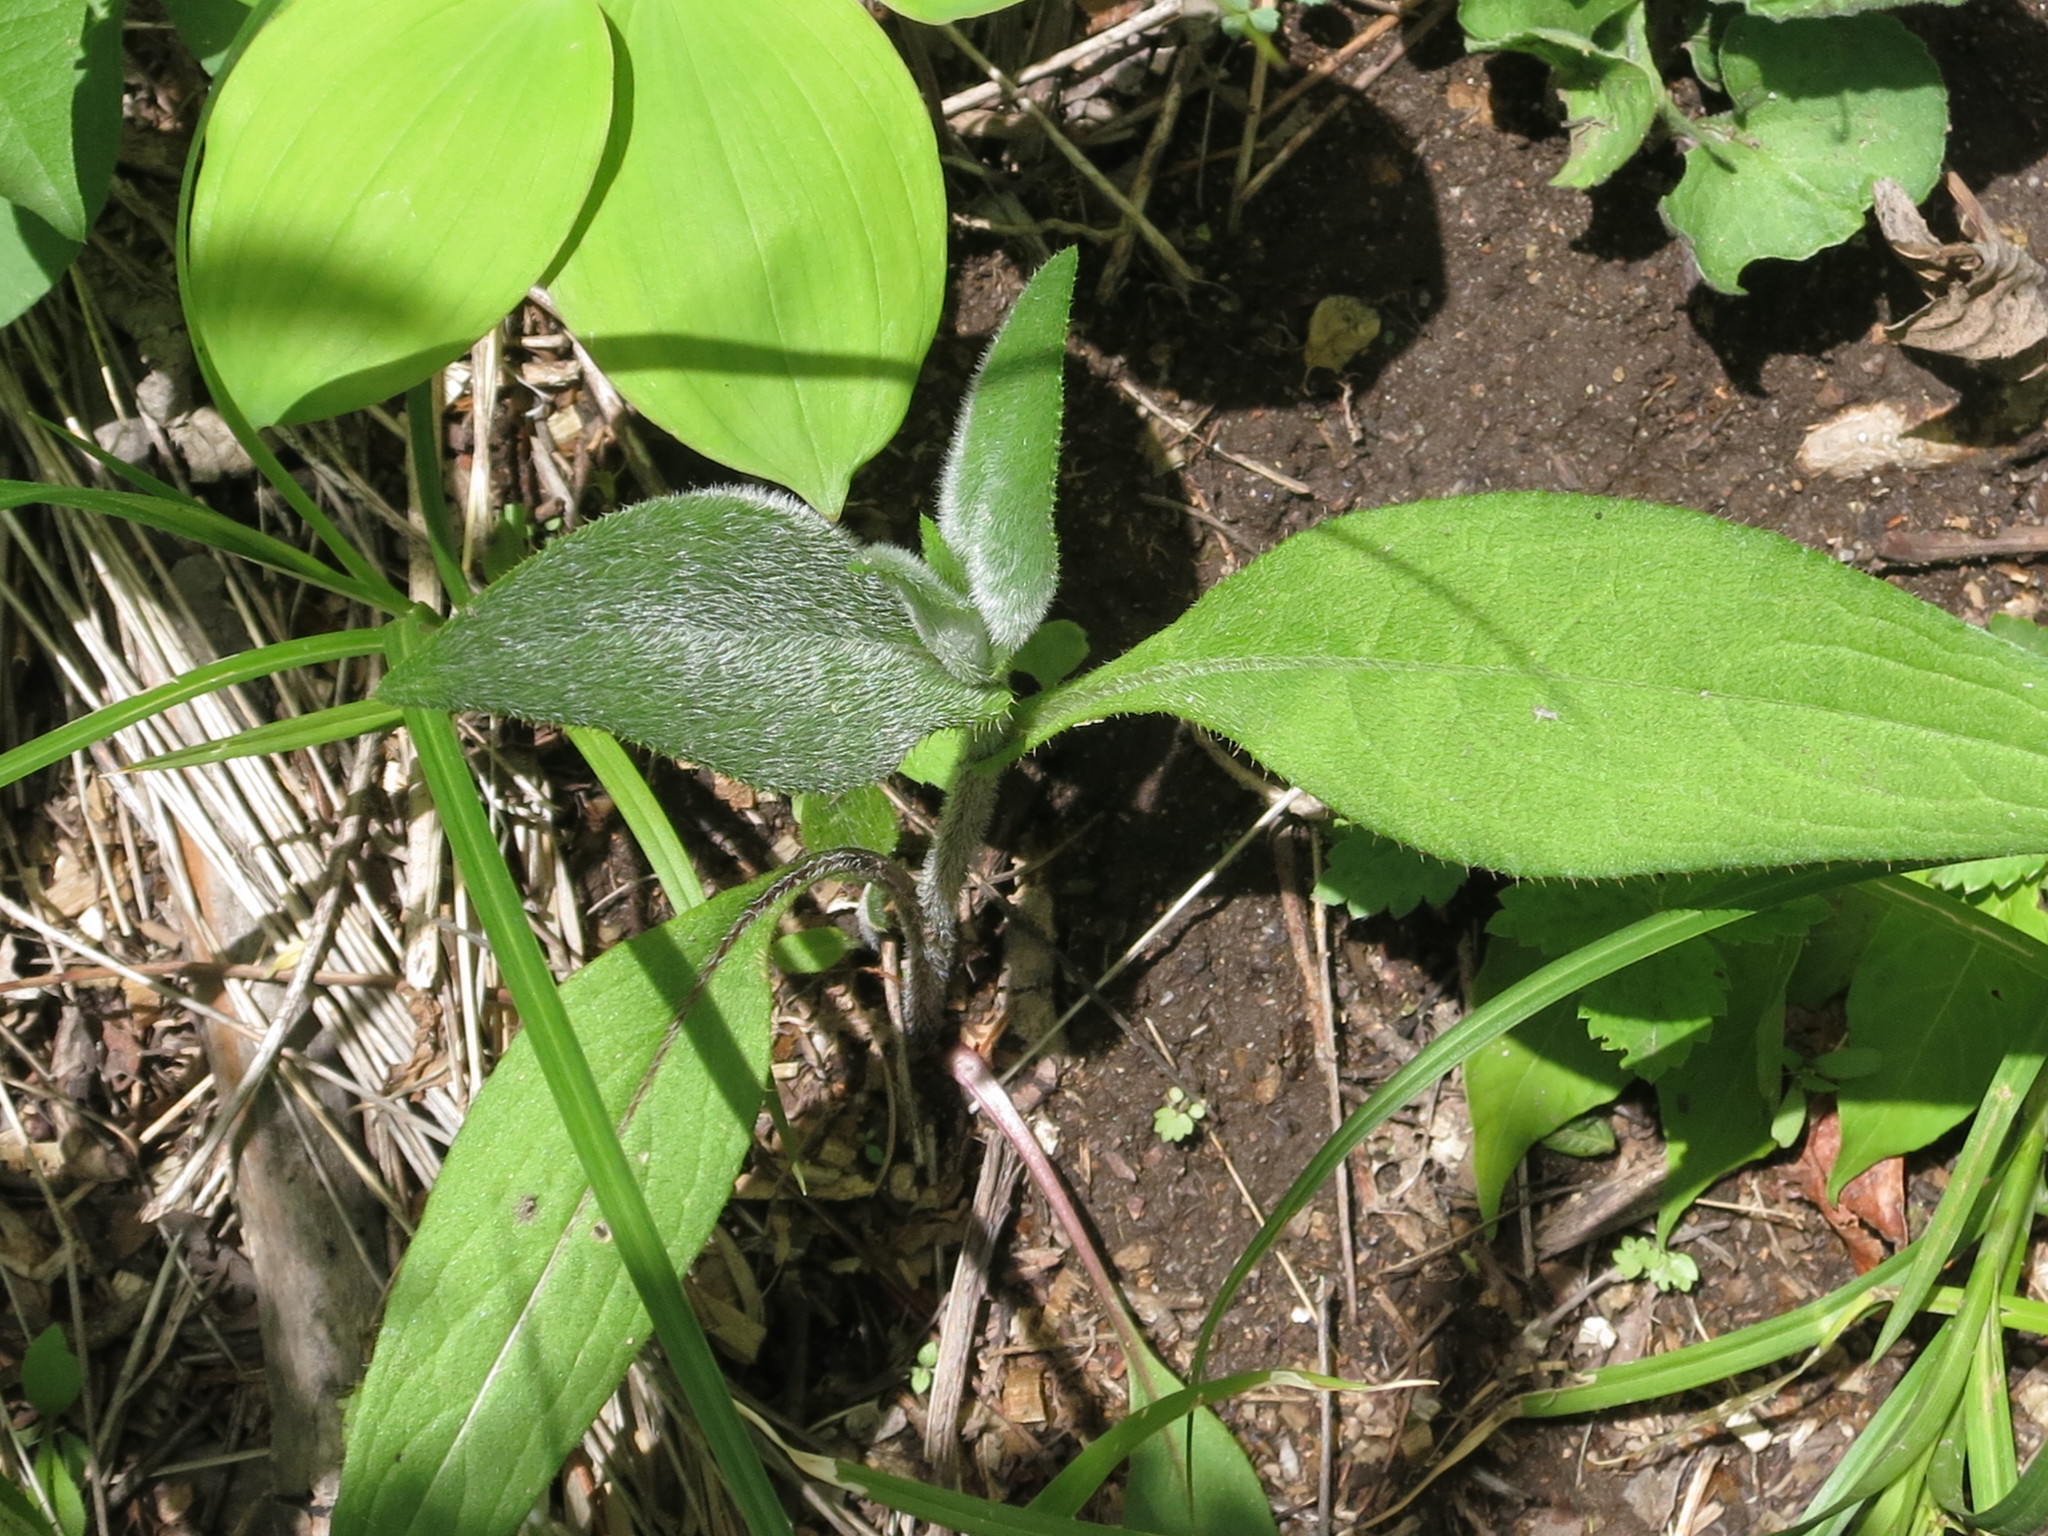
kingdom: Plantae
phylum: Tracheophyta
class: Magnoliopsida
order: Asterales
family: Asteraceae
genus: Cirsium
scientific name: Cirsium vlassovianum
